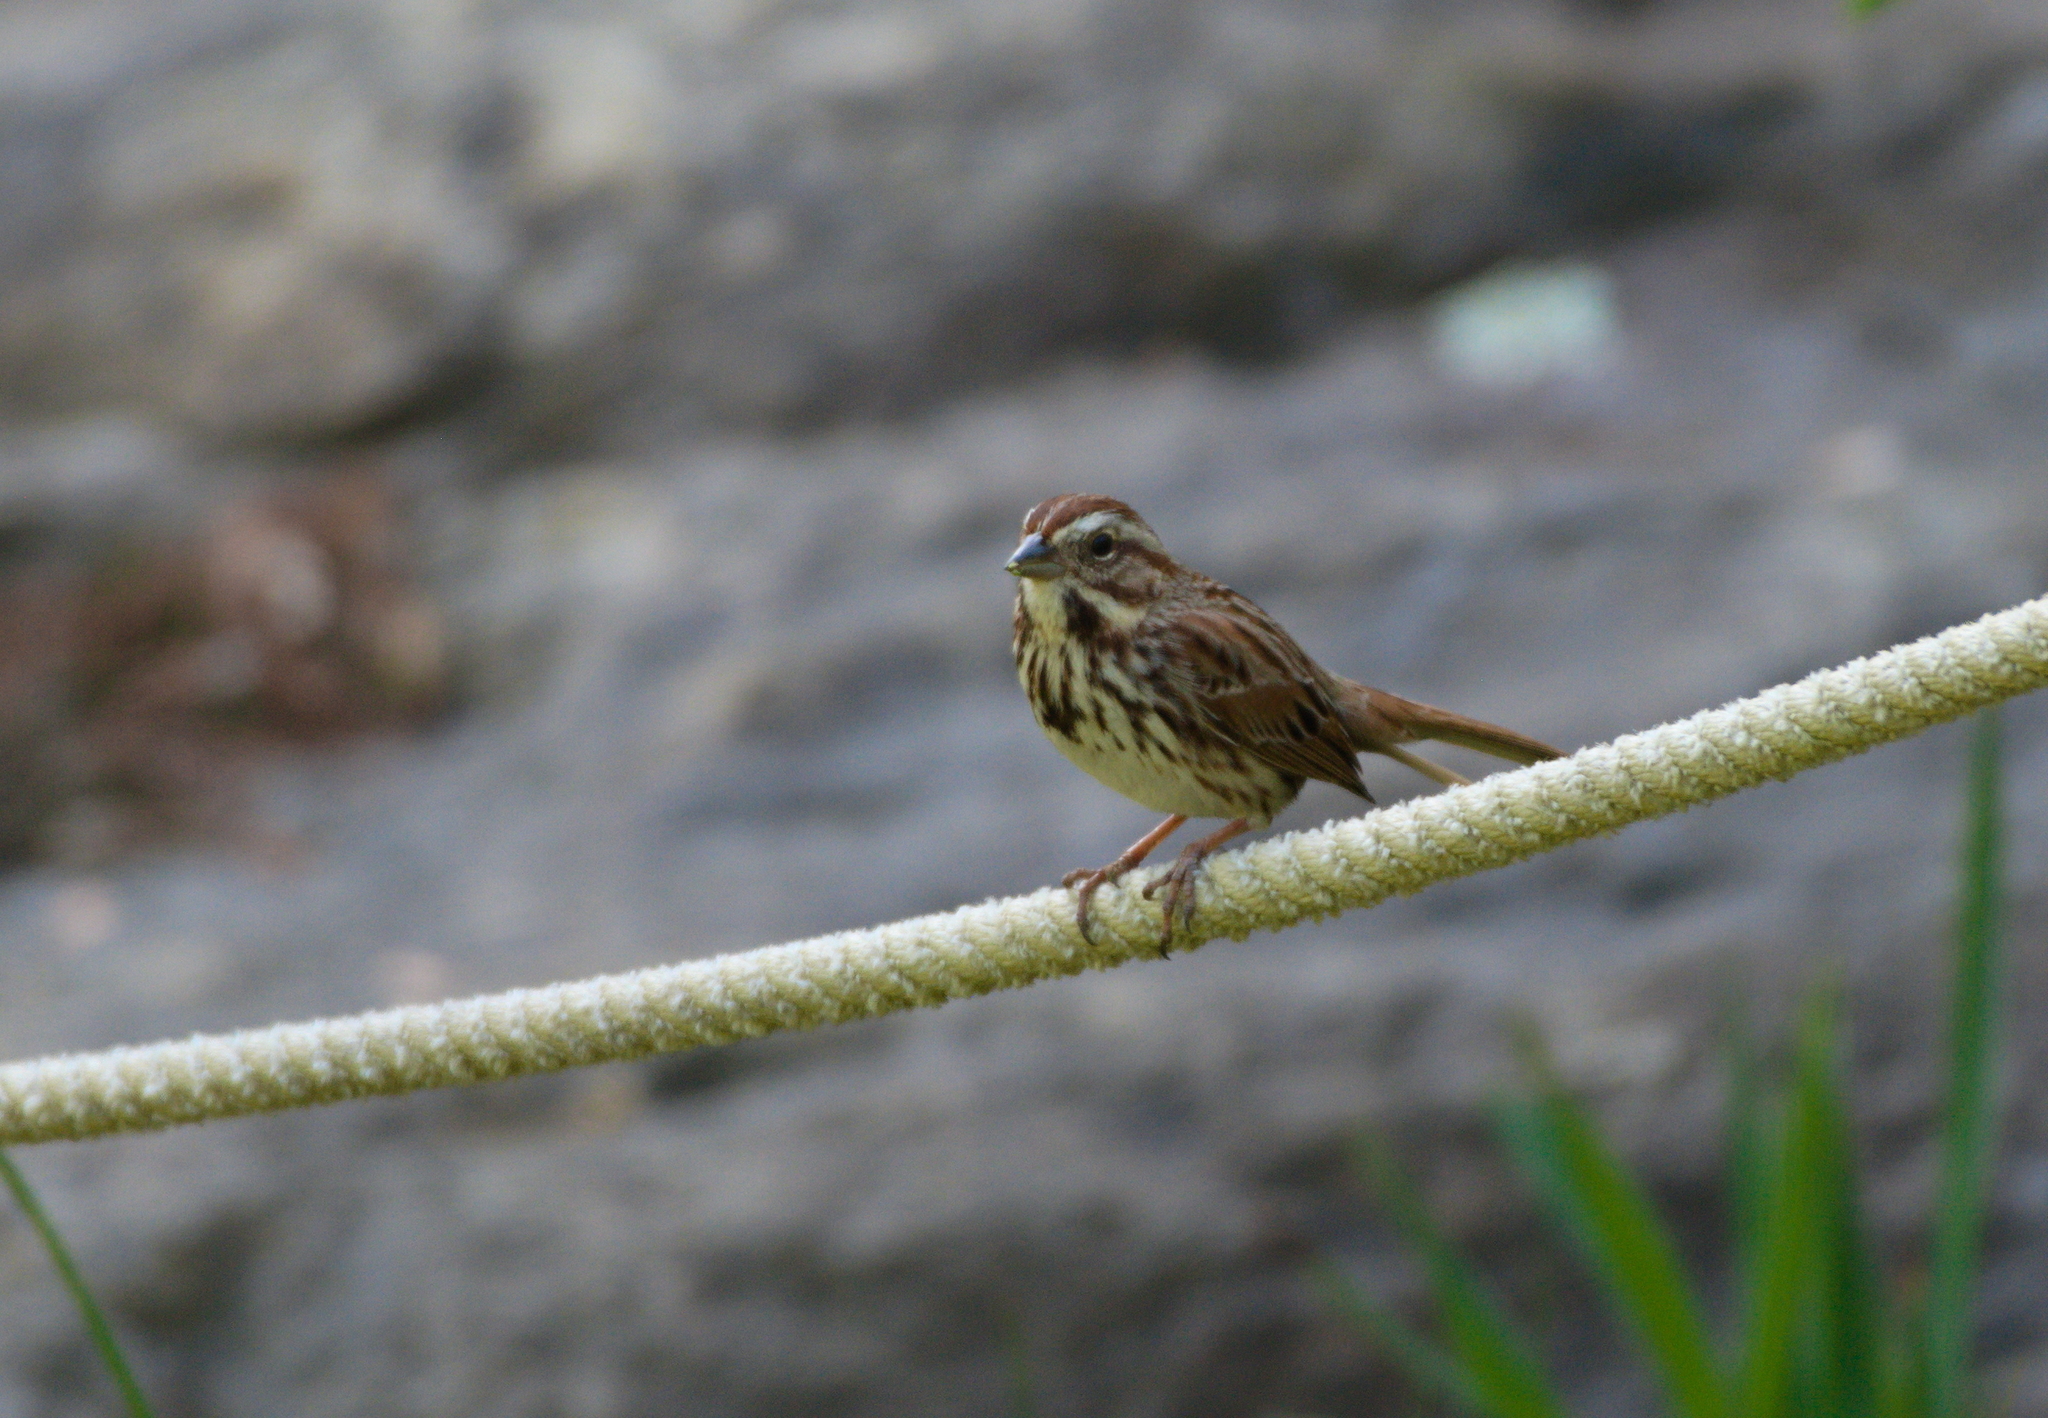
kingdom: Animalia
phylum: Chordata
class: Aves
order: Passeriformes
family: Passerellidae
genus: Melospiza
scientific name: Melospiza melodia
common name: Song sparrow
